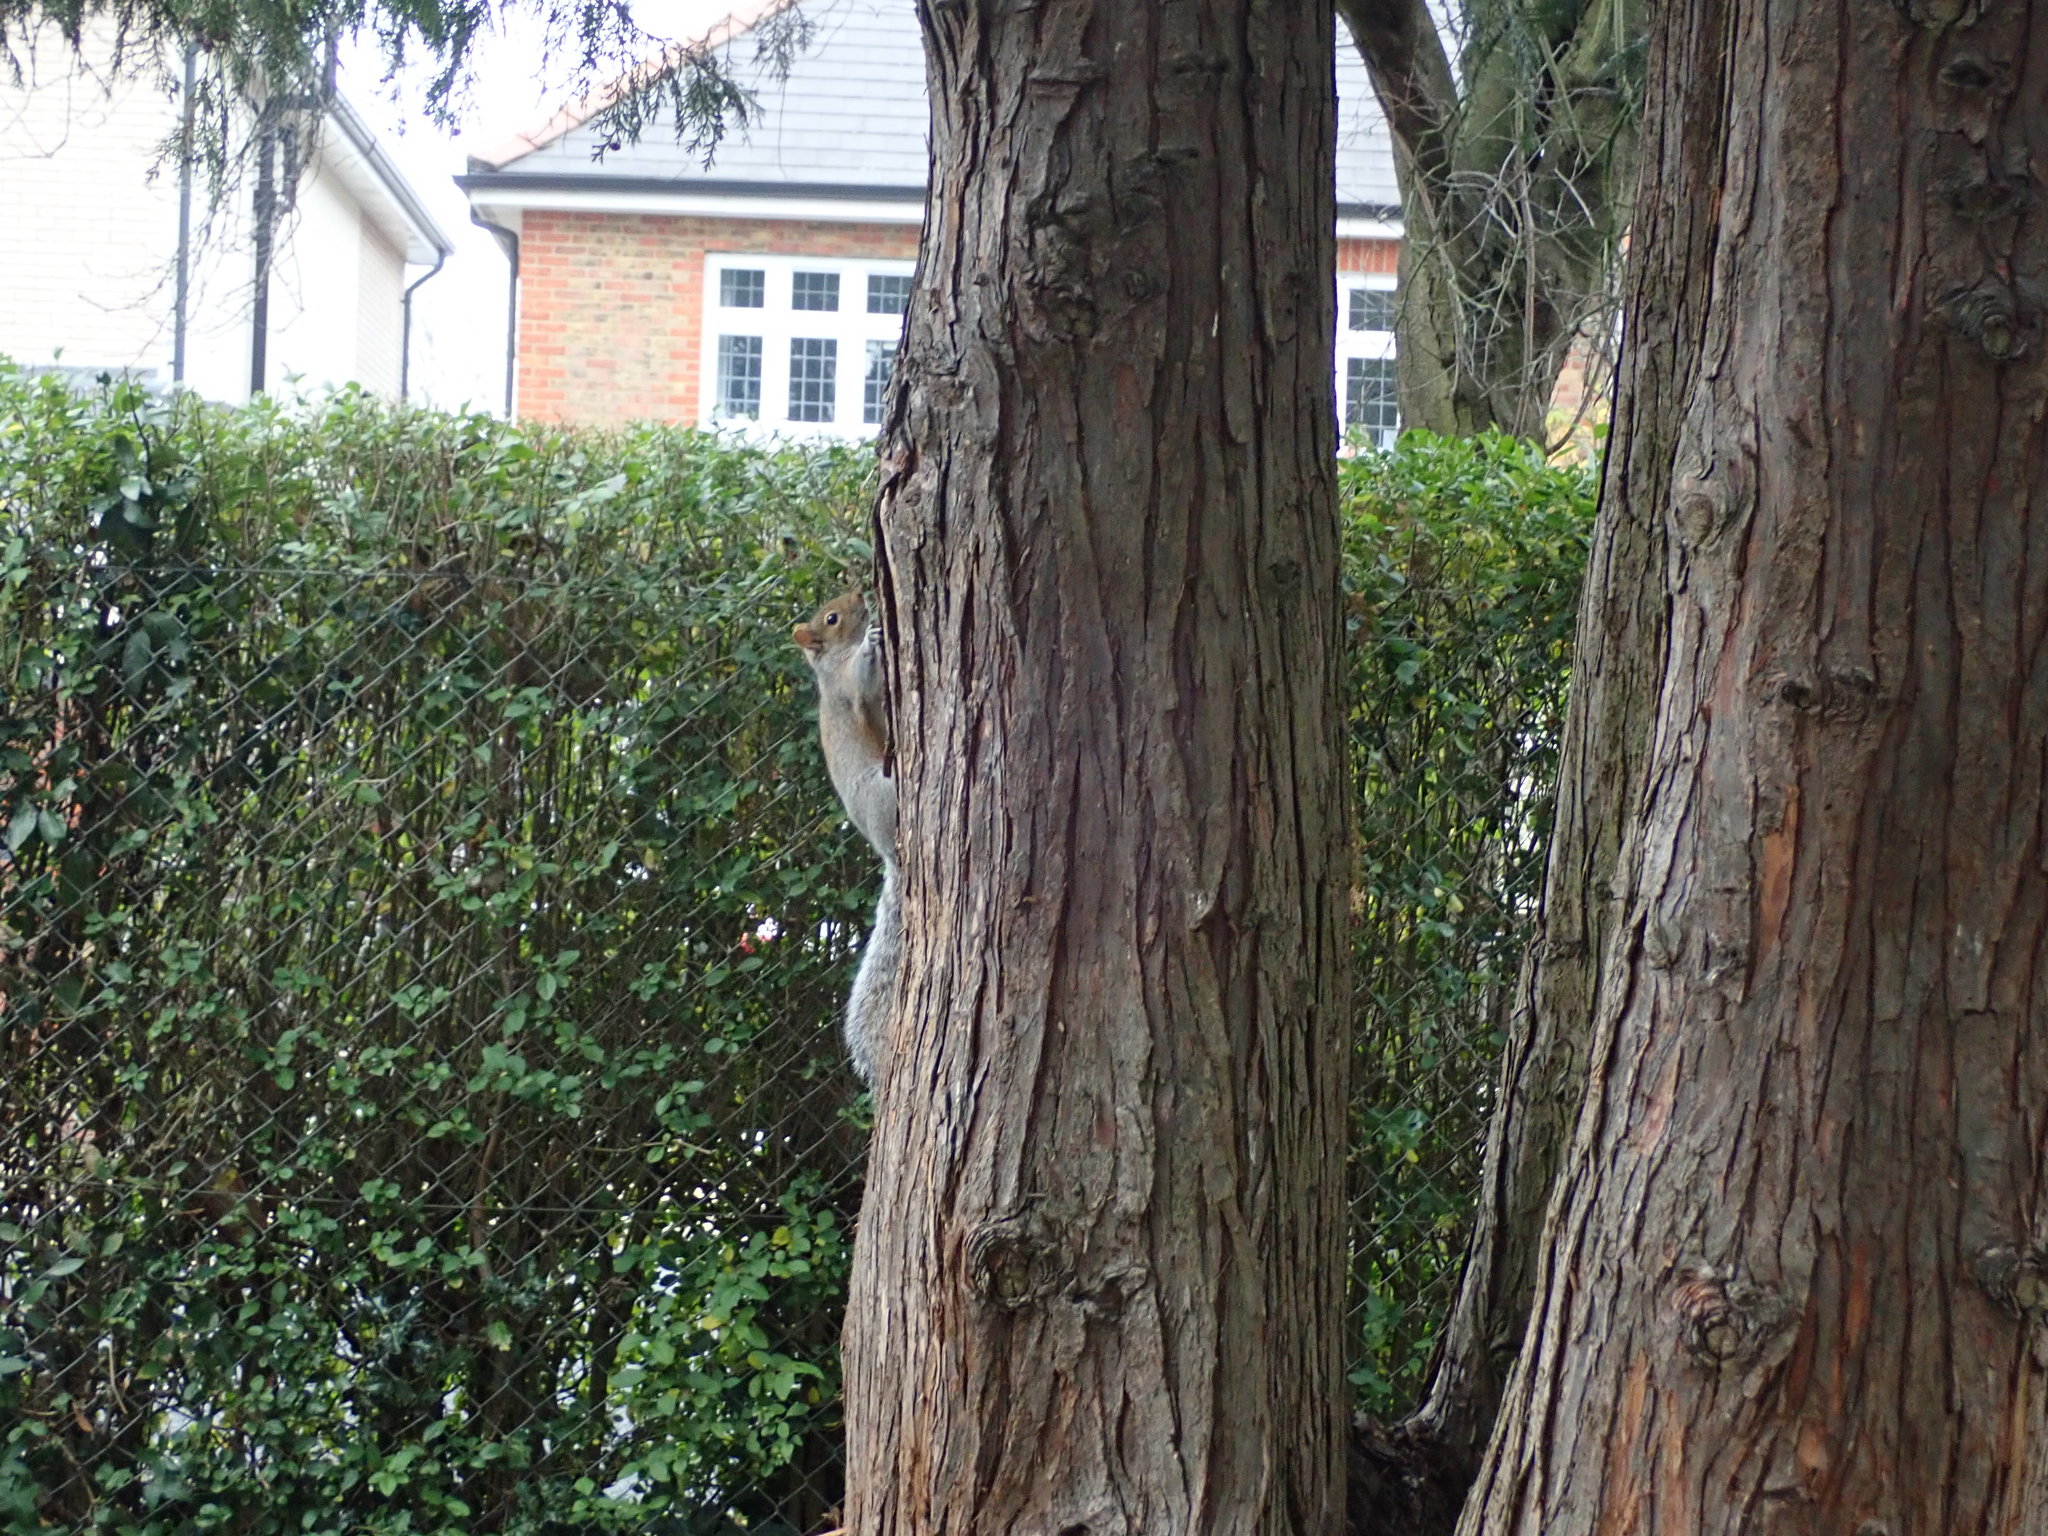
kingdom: Animalia
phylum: Chordata
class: Mammalia
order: Rodentia
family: Sciuridae
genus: Sciurus
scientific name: Sciurus carolinensis
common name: Eastern gray squirrel
